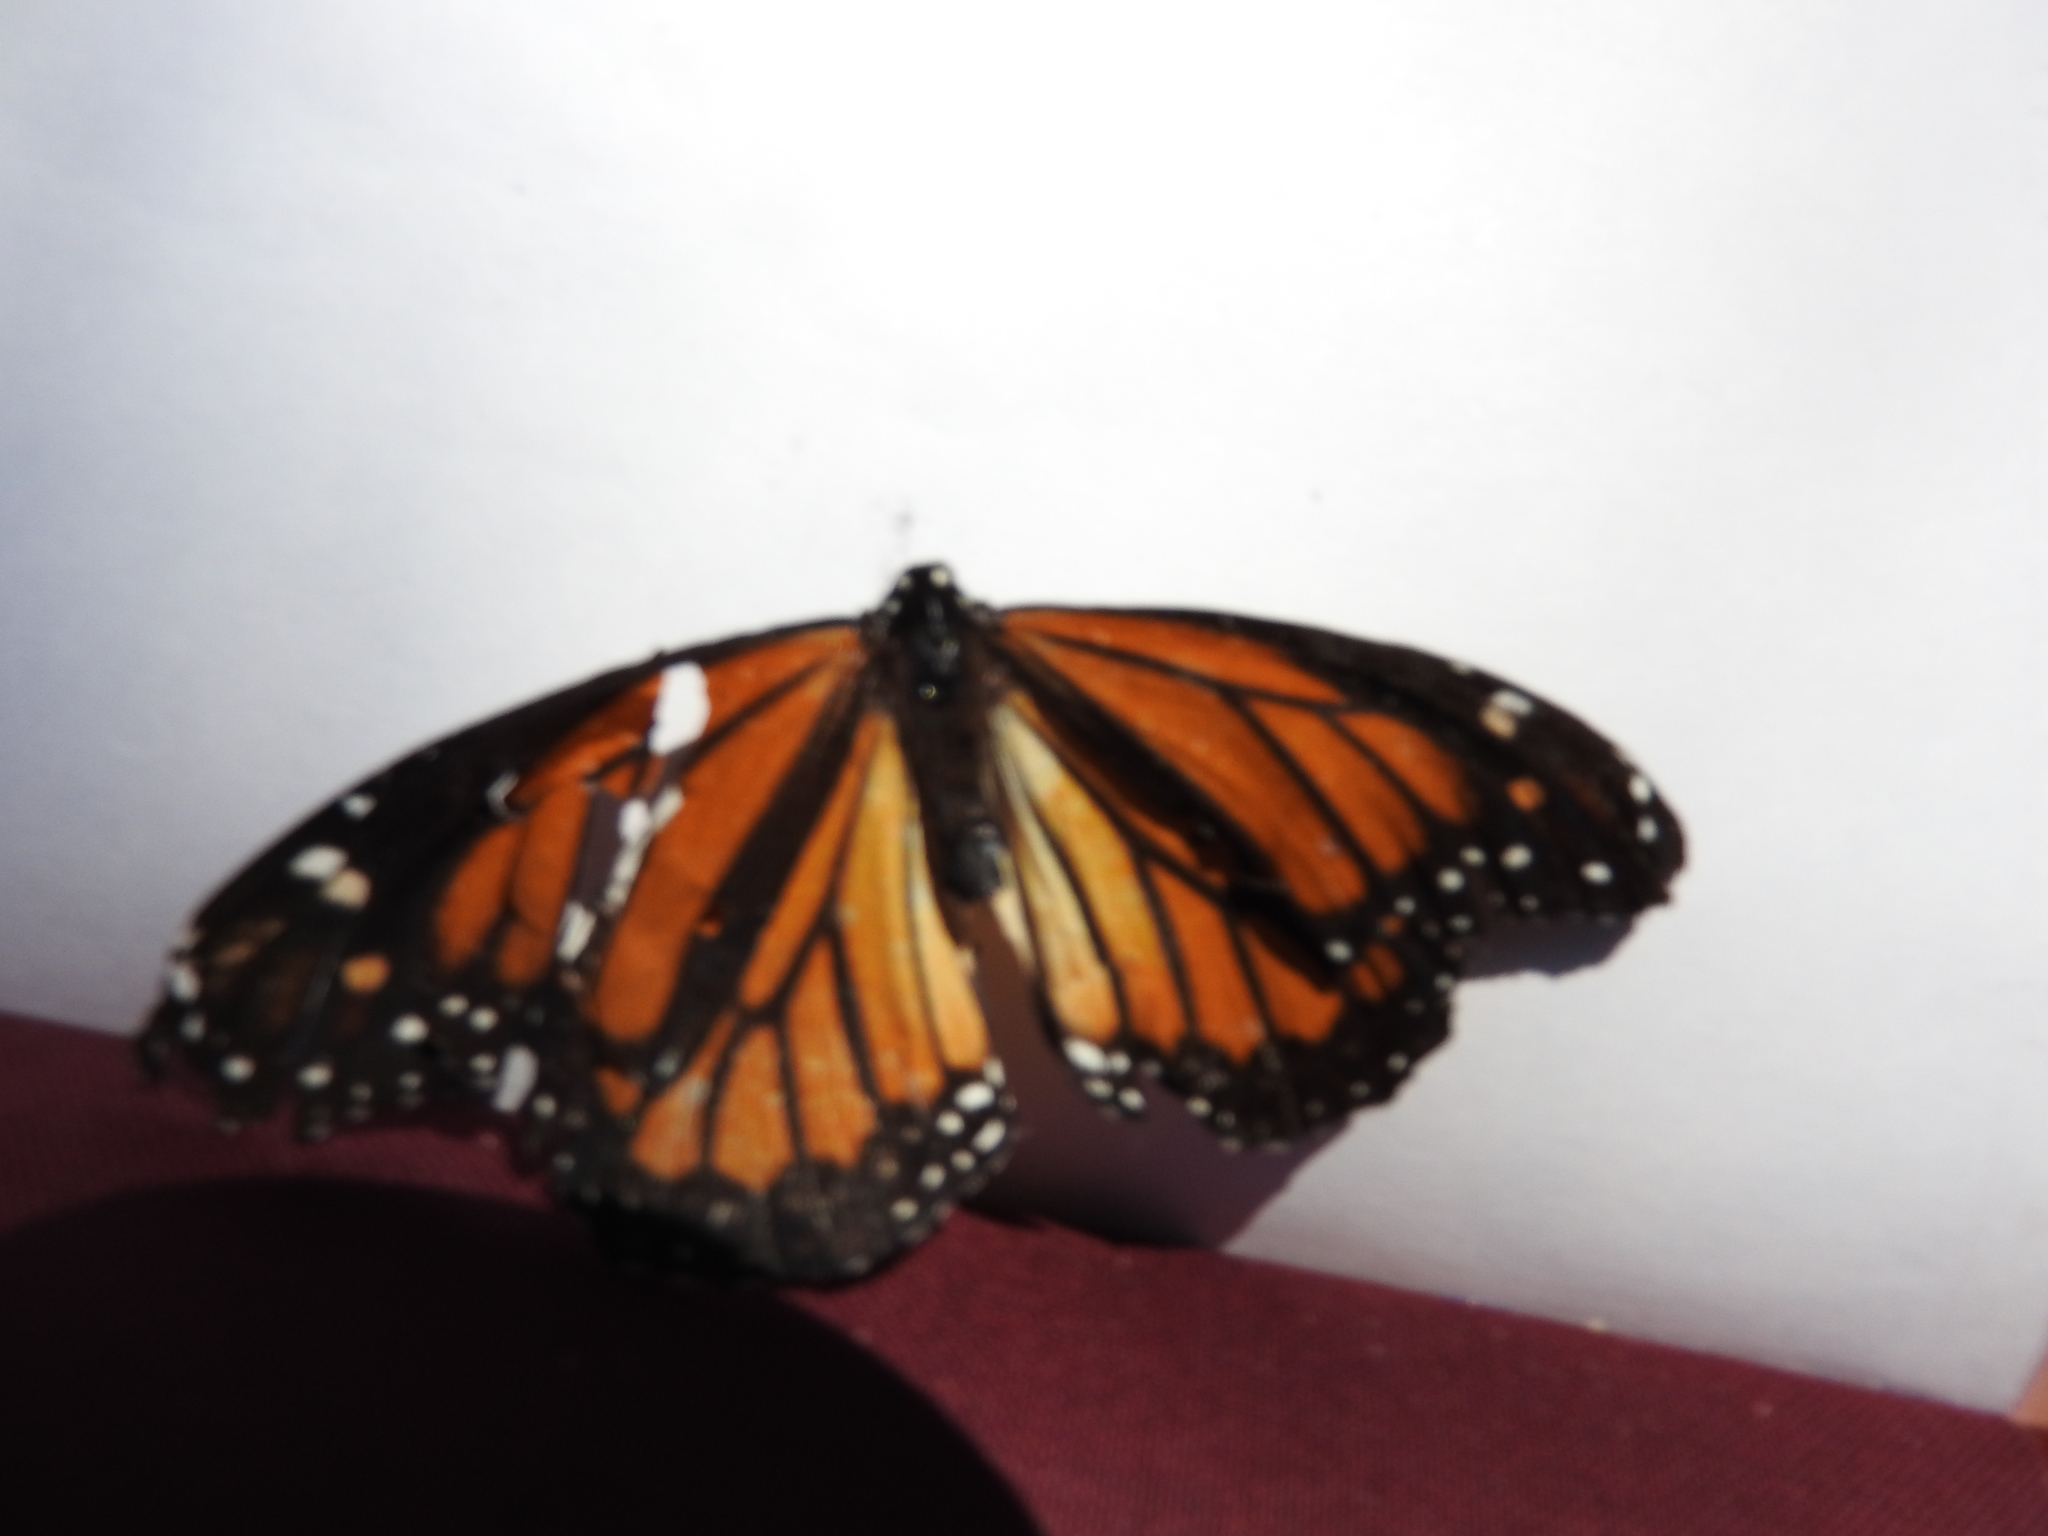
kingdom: Animalia
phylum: Arthropoda
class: Insecta
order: Lepidoptera
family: Nymphalidae
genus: Danaus
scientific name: Danaus plexippus
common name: Monarch
